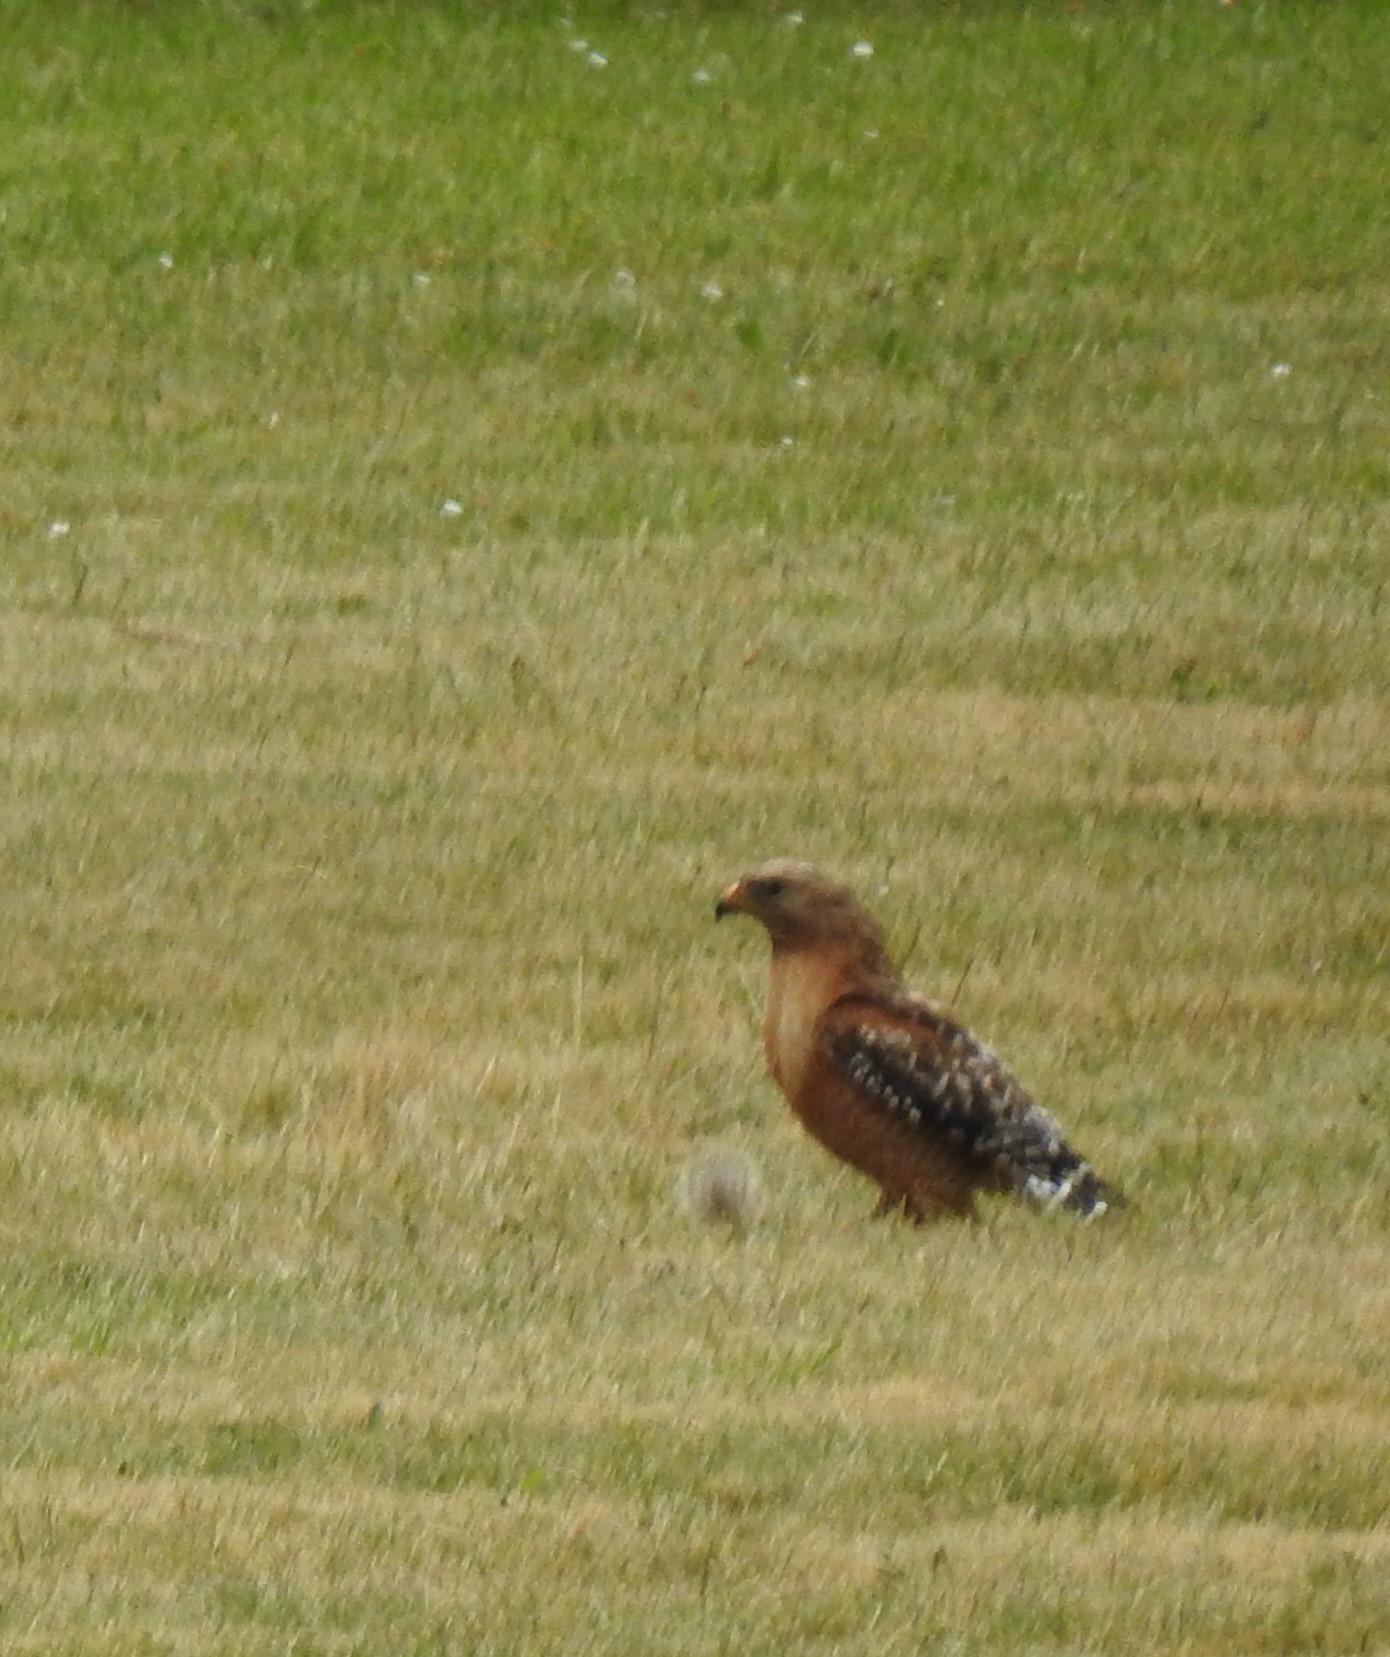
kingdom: Animalia
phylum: Chordata
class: Aves
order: Accipitriformes
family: Accipitridae
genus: Buteo
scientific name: Buteo lineatus
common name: Red-shouldered hawk
